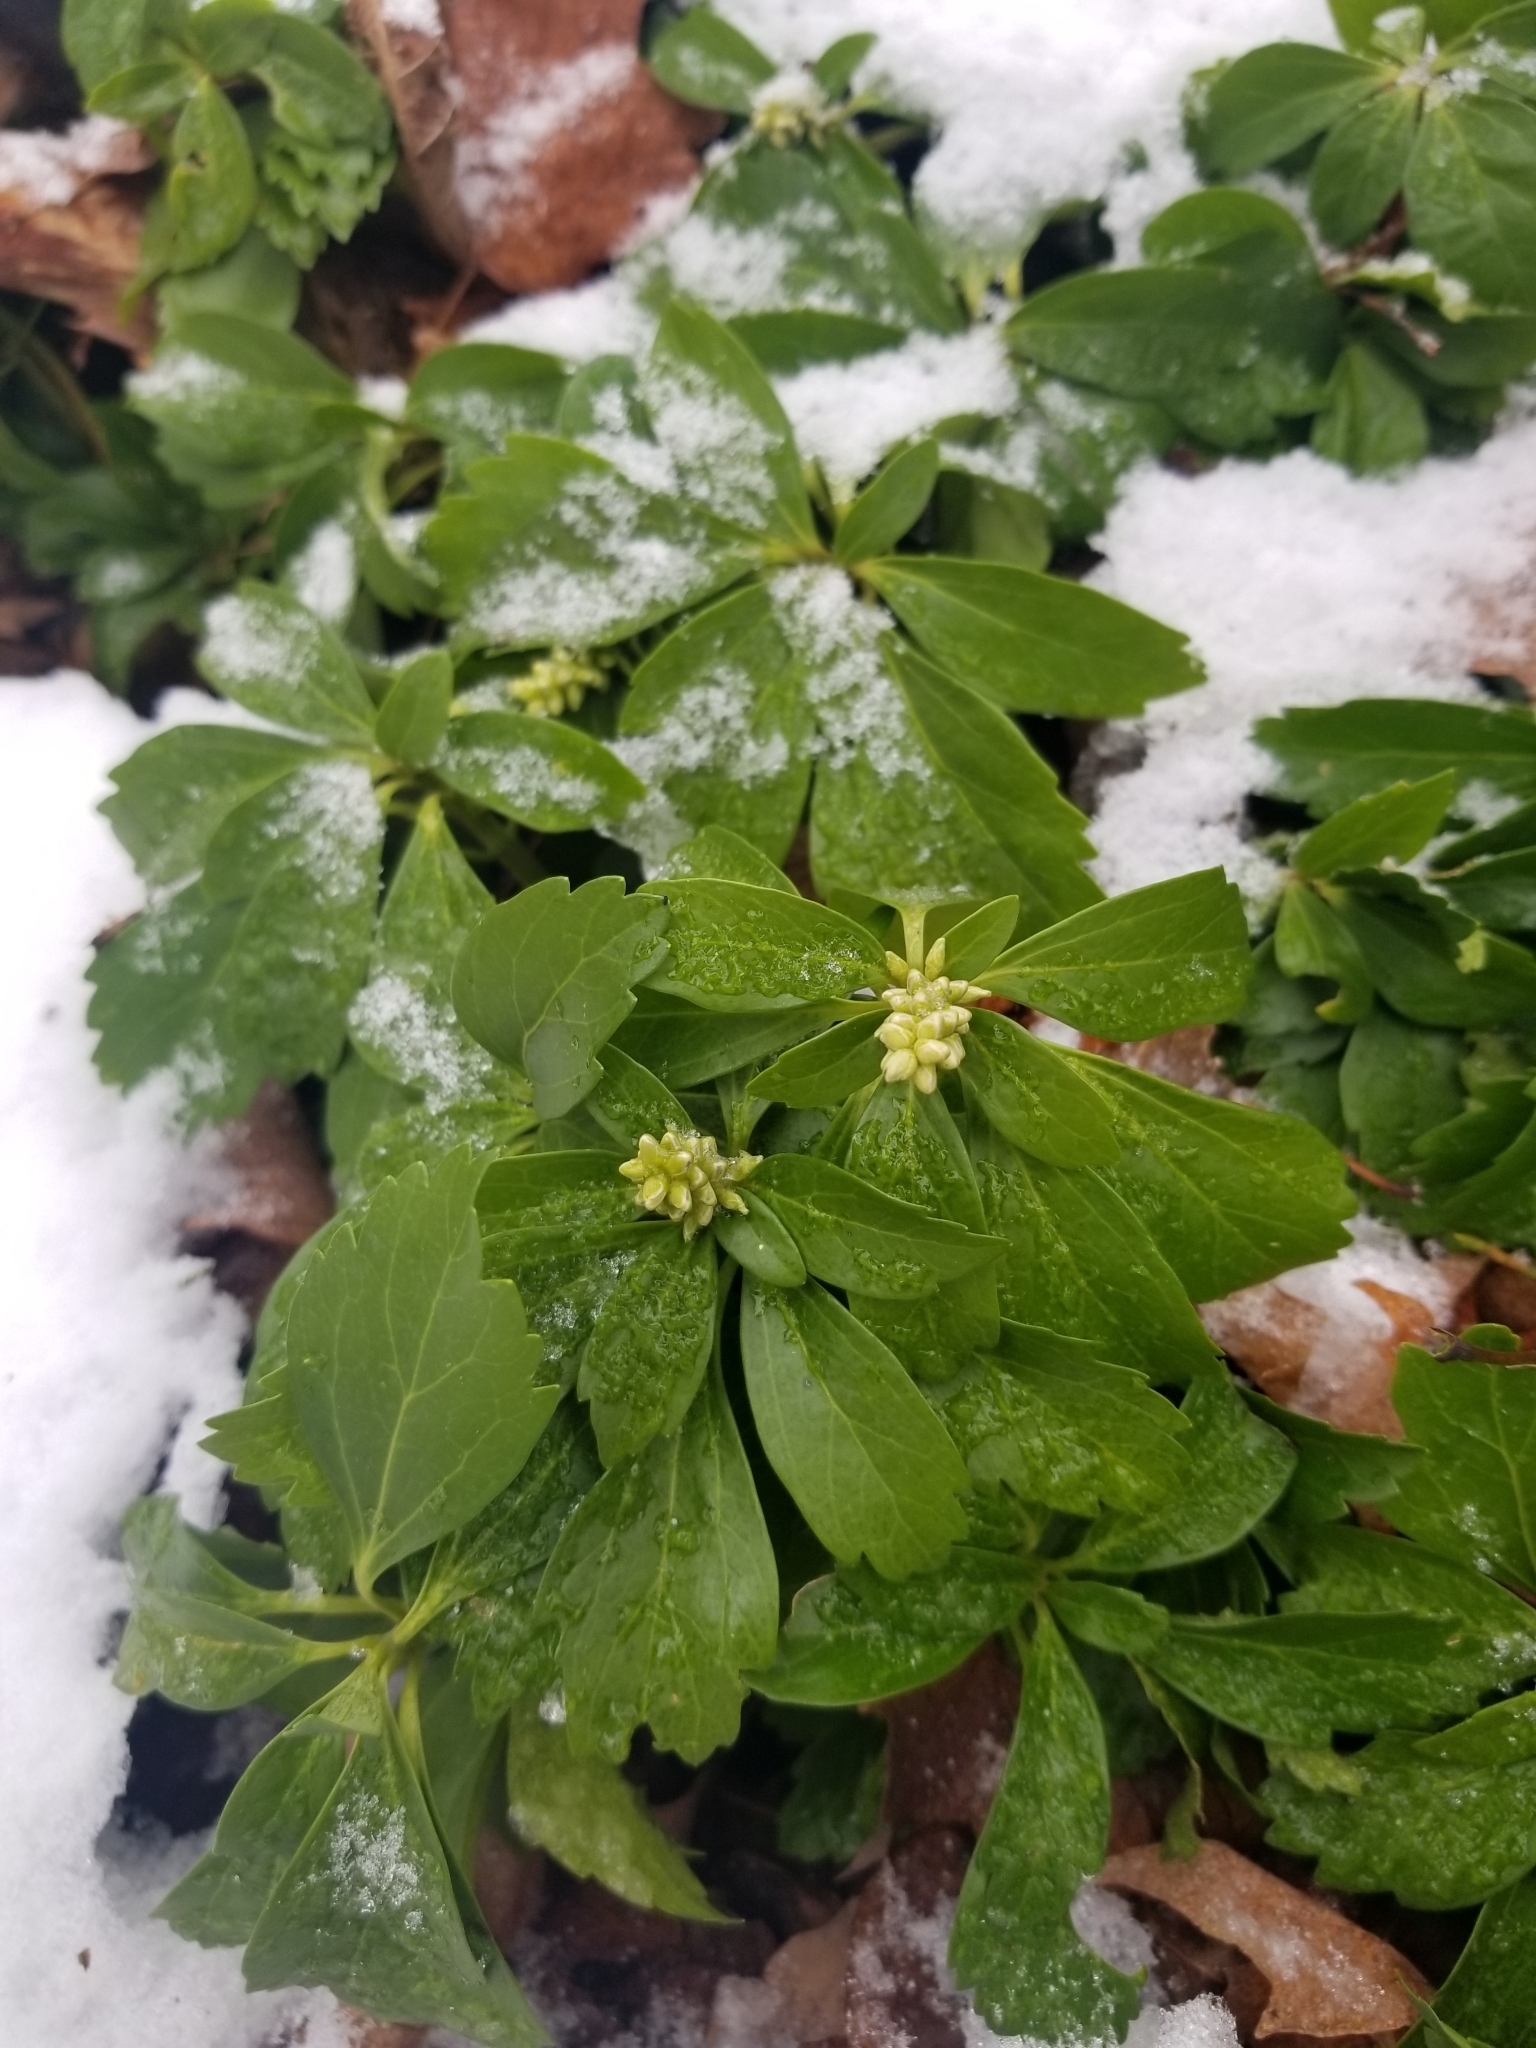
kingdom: Plantae
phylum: Tracheophyta
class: Magnoliopsida
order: Buxales
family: Buxaceae
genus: Pachysandra
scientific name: Pachysandra terminalis
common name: Japanese pachysandra
